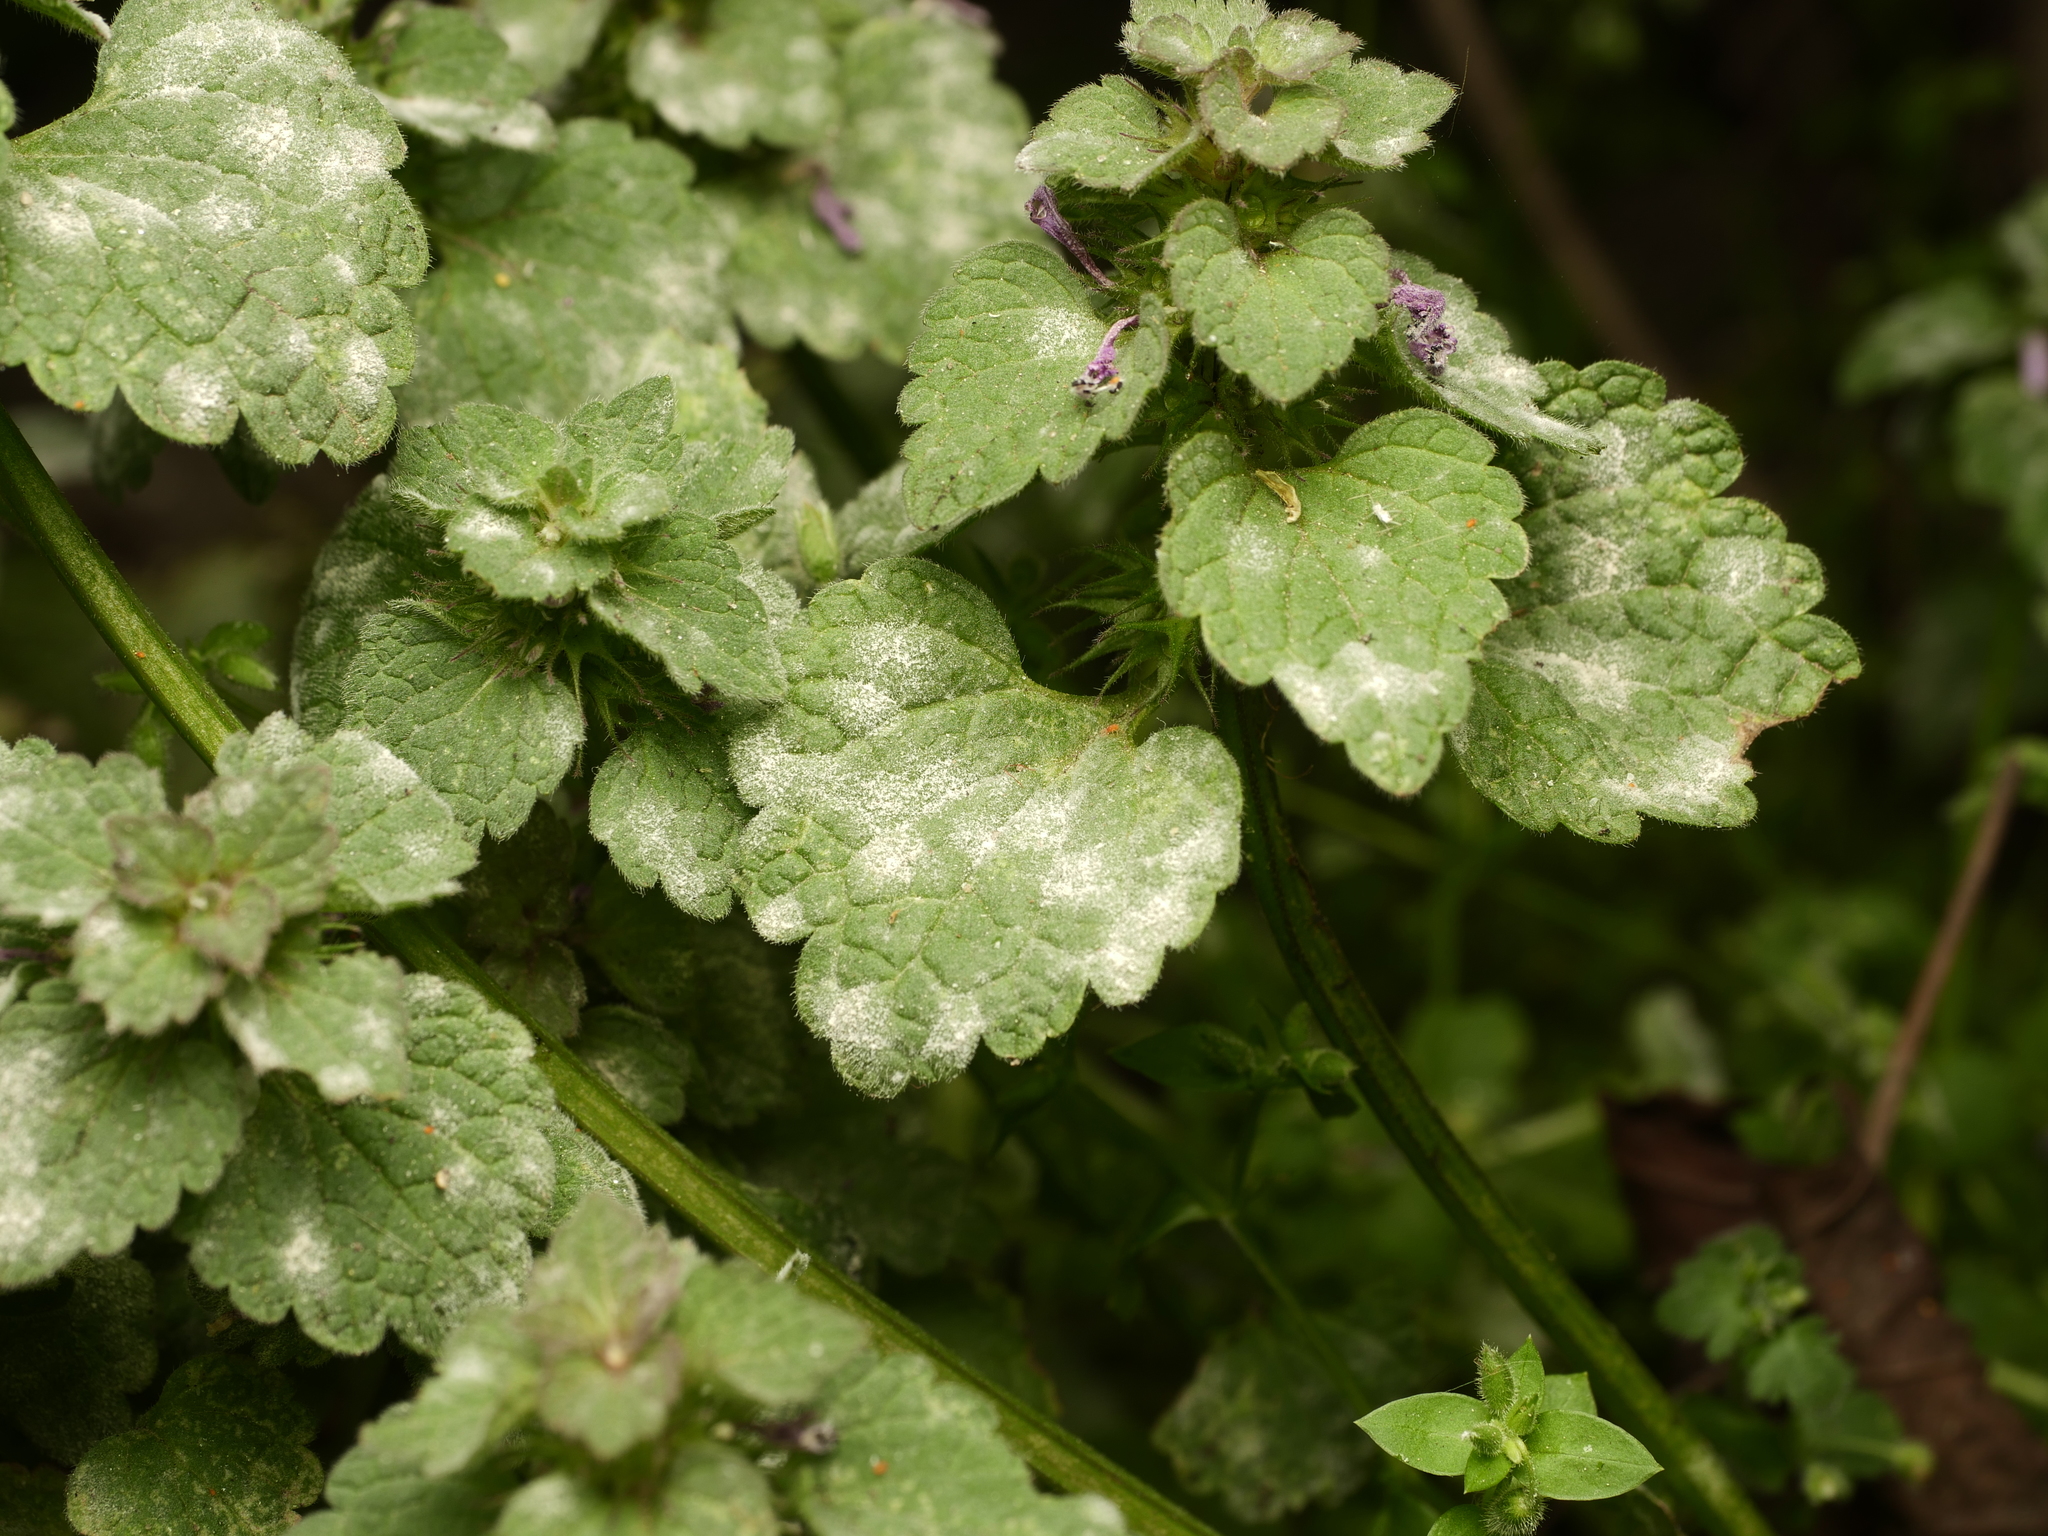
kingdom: Fungi
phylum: Ascomycota
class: Leotiomycetes
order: Helotiales
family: Erysiphaceae
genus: Neoerysiphe
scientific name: Neoerysiphe galeopsidis
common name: Mint mildew
